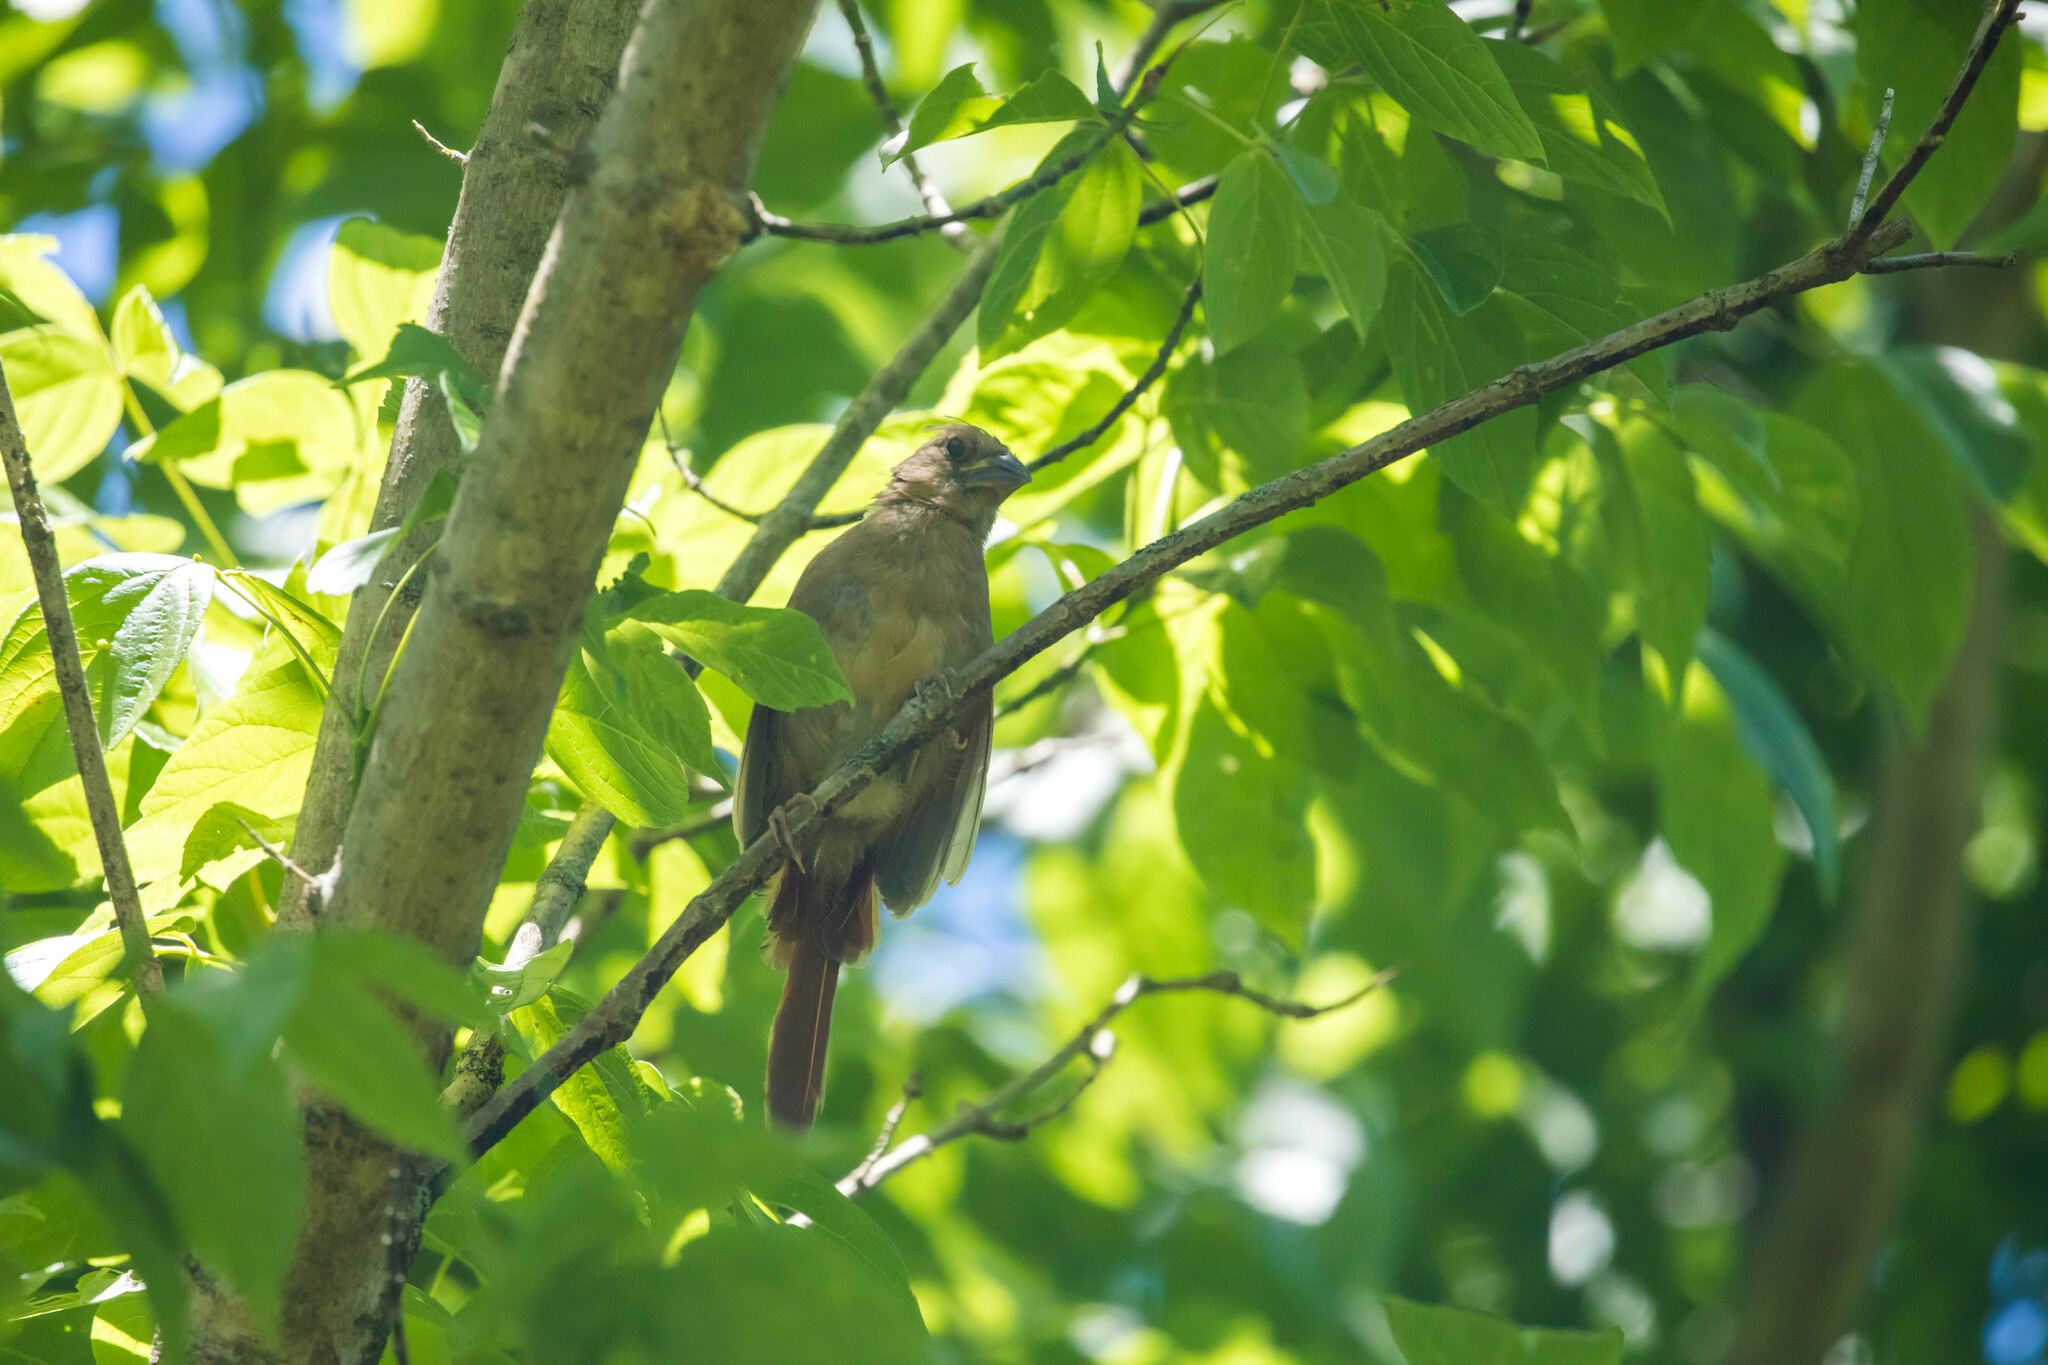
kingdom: Animalia
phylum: Chordata
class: Aves
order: Passeriformes
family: Cardinalidae
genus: Cardinalis
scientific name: Cardinalis cardinalis
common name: Northern cardinal
